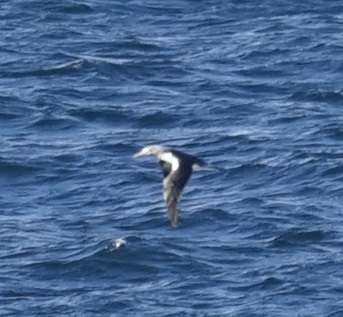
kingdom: Animalia
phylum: Chordata
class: Aves
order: Suliformes
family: Sulidae
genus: Morus
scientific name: Morus serrator
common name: Australasian gannet
